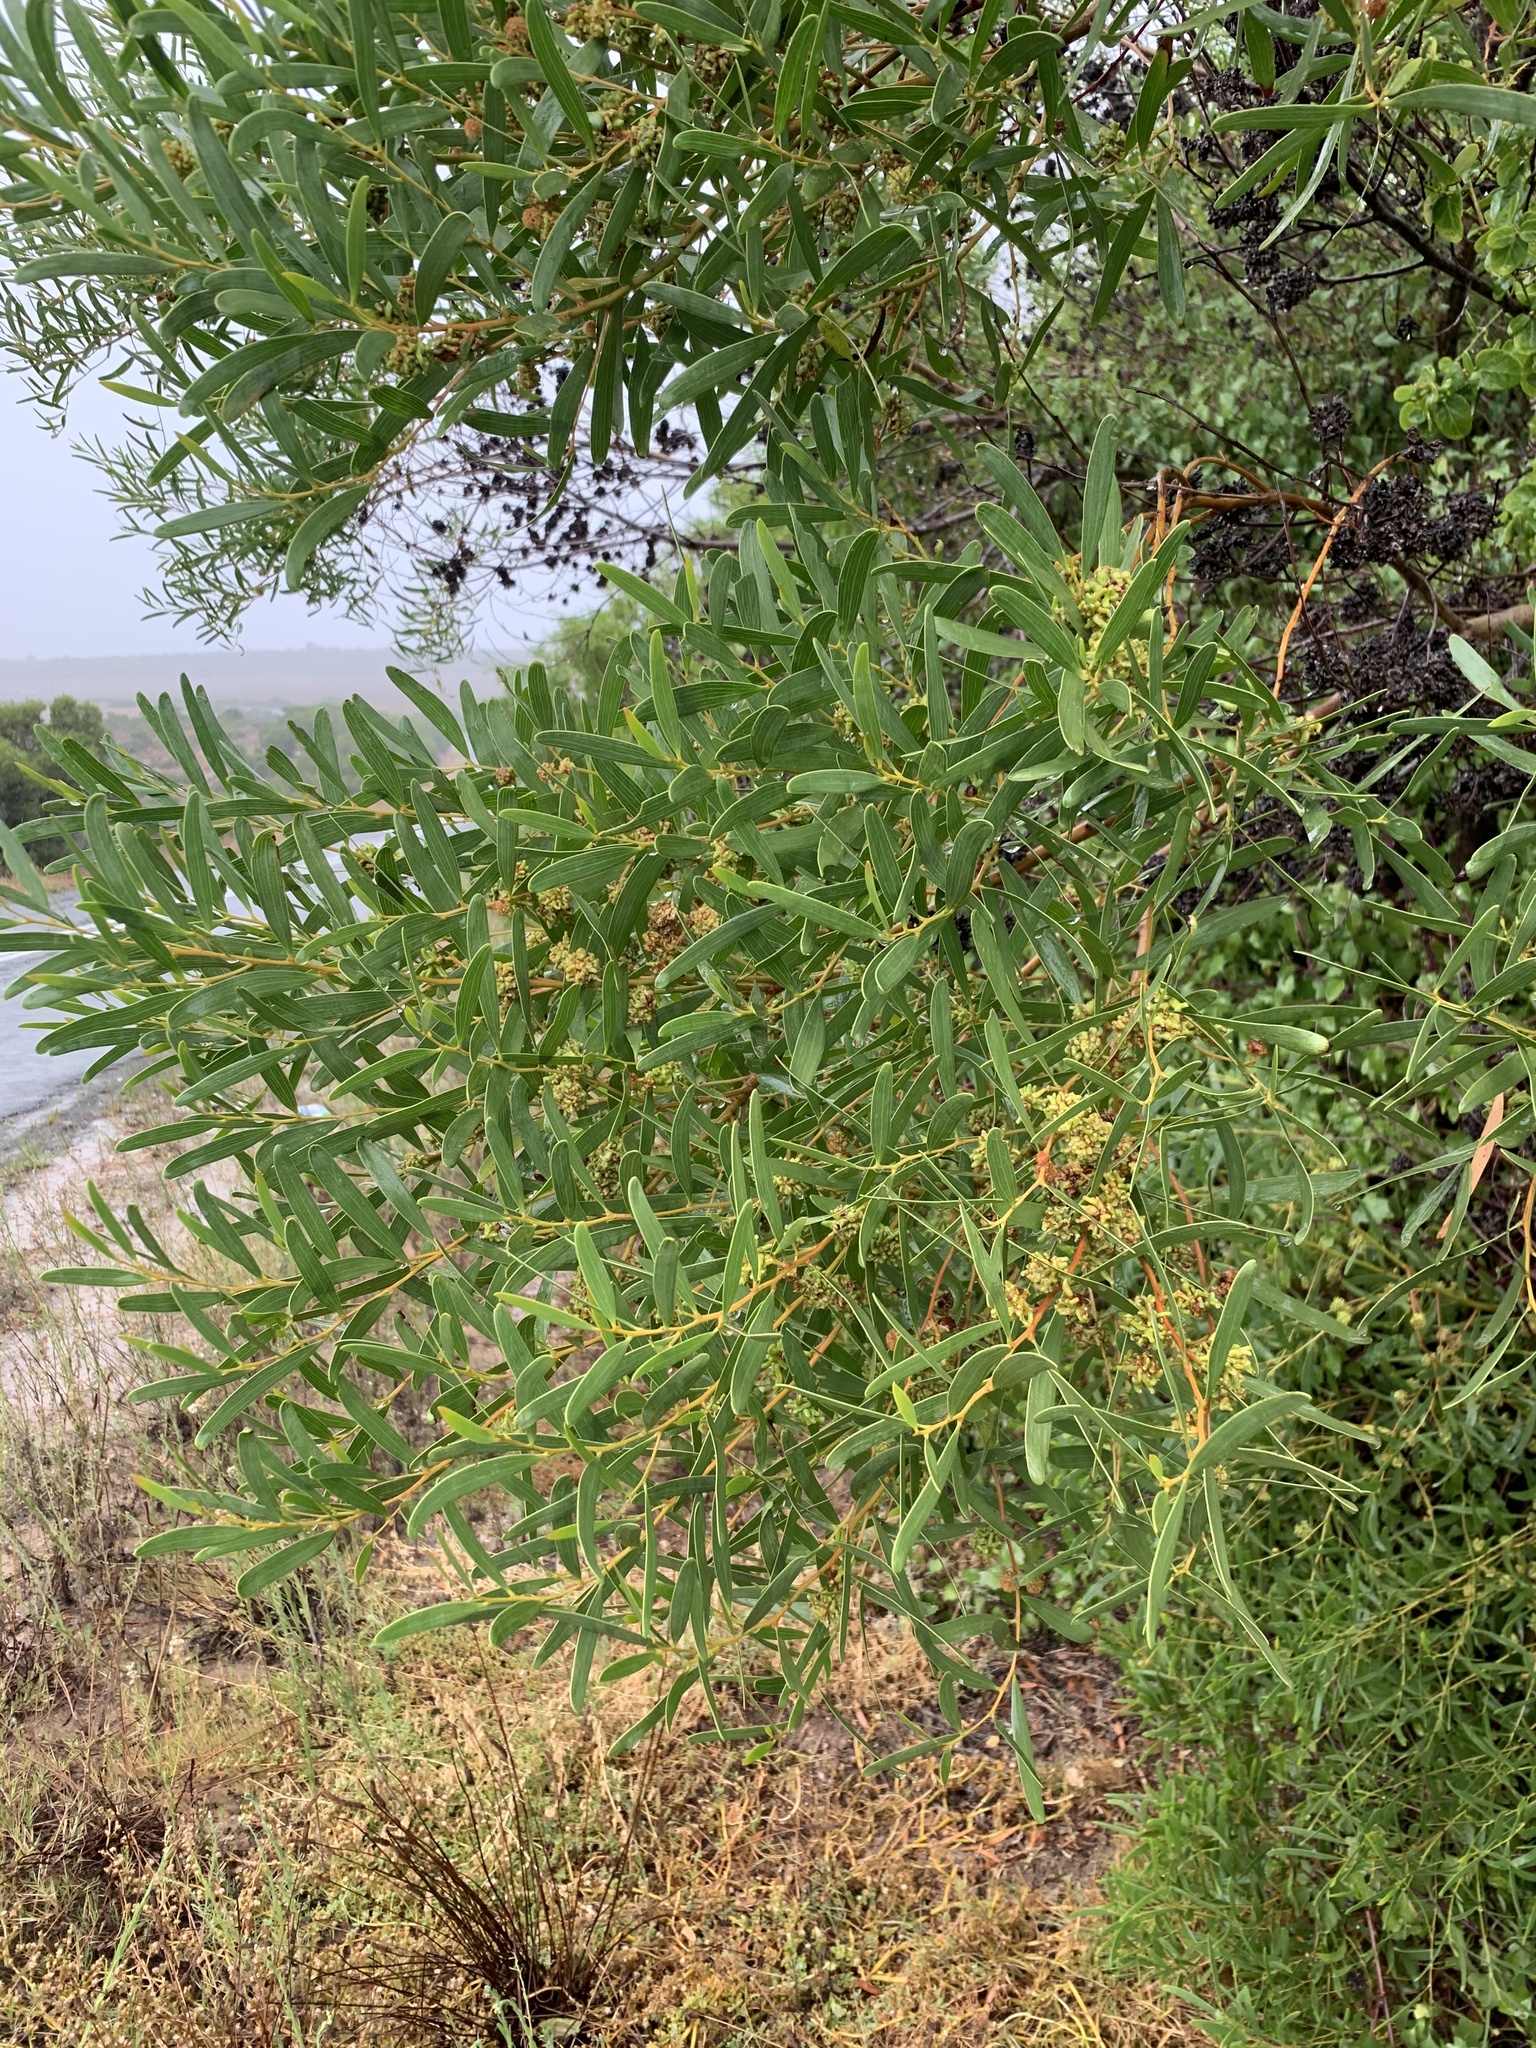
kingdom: Plantae
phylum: Tracheophyta
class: Magnoliopsida
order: Fabales
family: Fabaceae
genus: Acacia
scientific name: Acacia cyclops
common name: Coastal wattle
